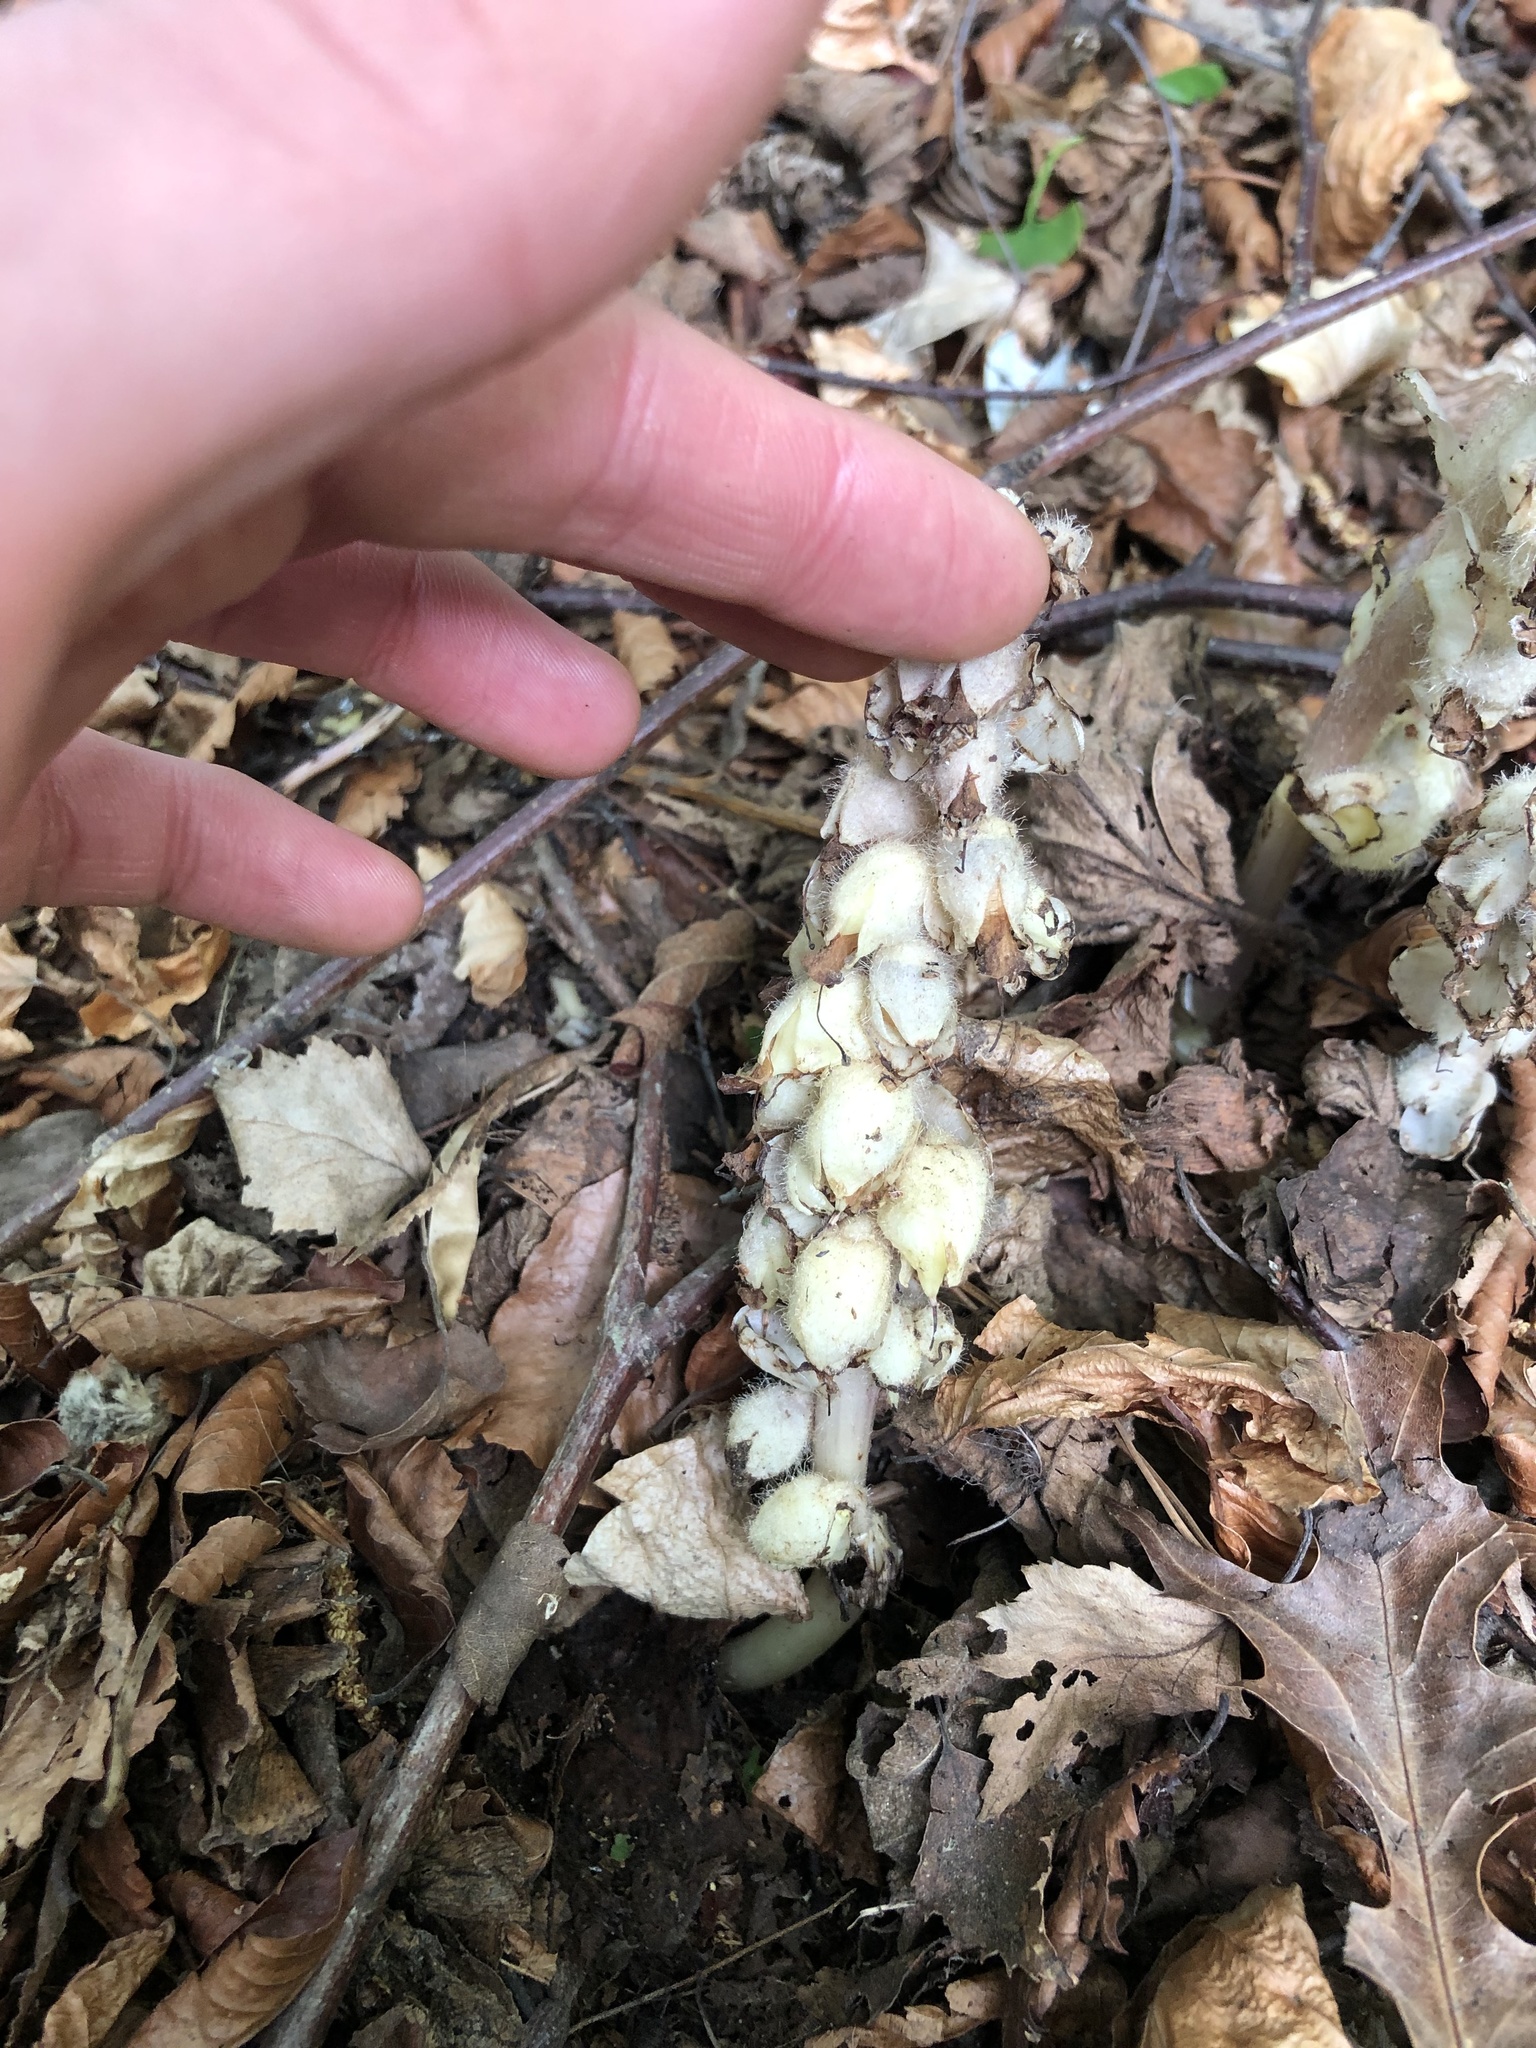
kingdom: Plantae
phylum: Tracheophyta
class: Magnoliopsida
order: Lamiales
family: Orobanchaceae
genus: Lathraea
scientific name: Lathraea squamaria
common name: Toothwort
